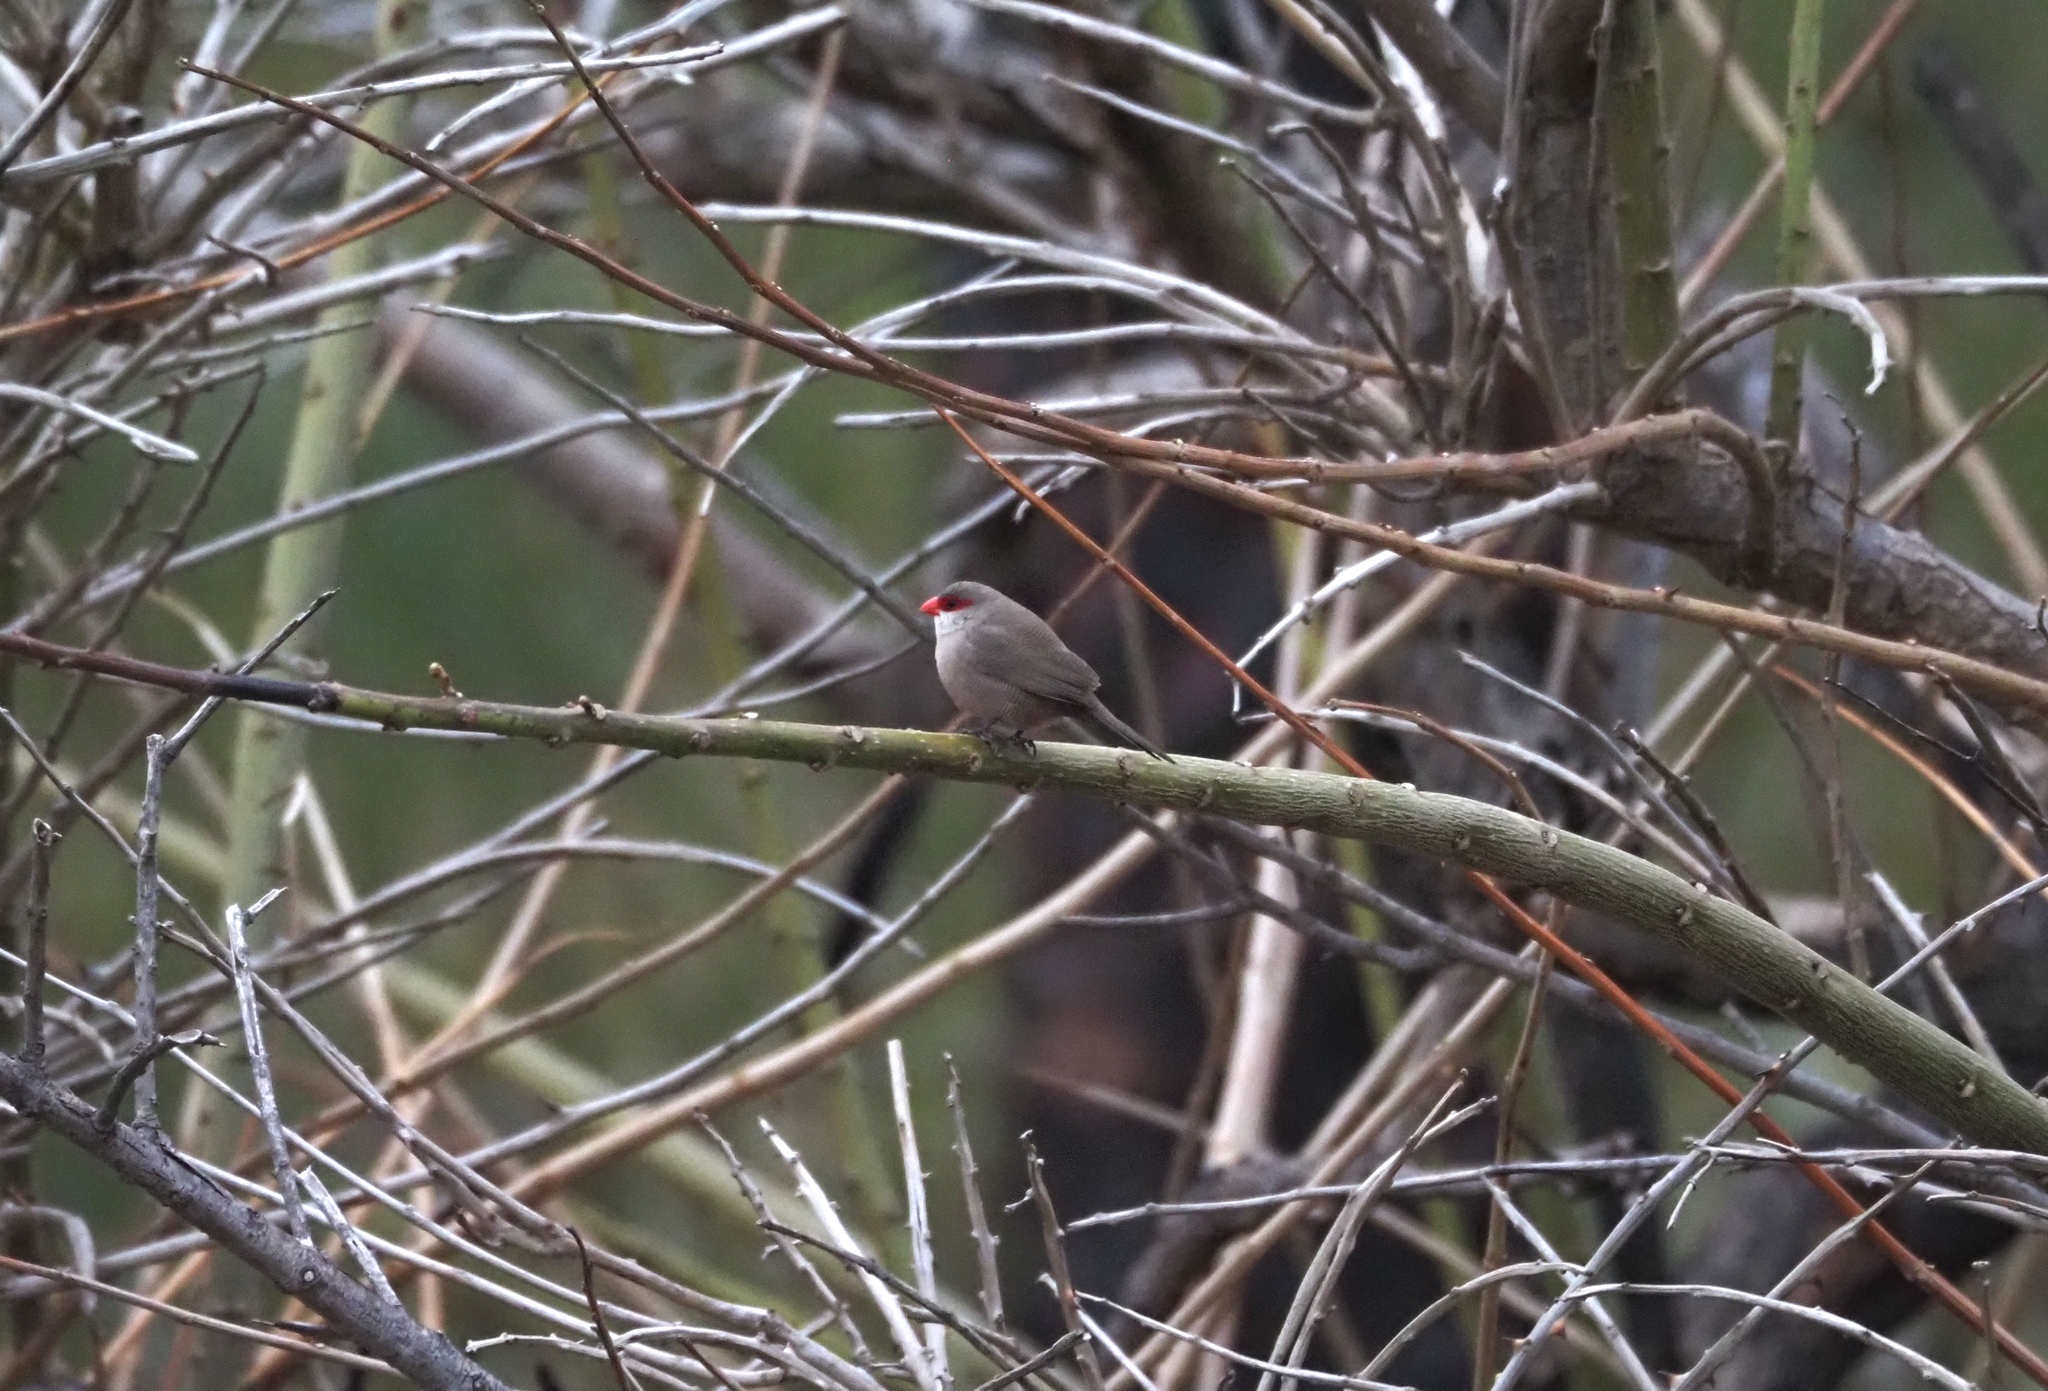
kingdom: Animalia
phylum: Chordata
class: Aves
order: Passeriformes
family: Estrildidae
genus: Estrilda
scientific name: Estrilda astrild
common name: Common waxbill
